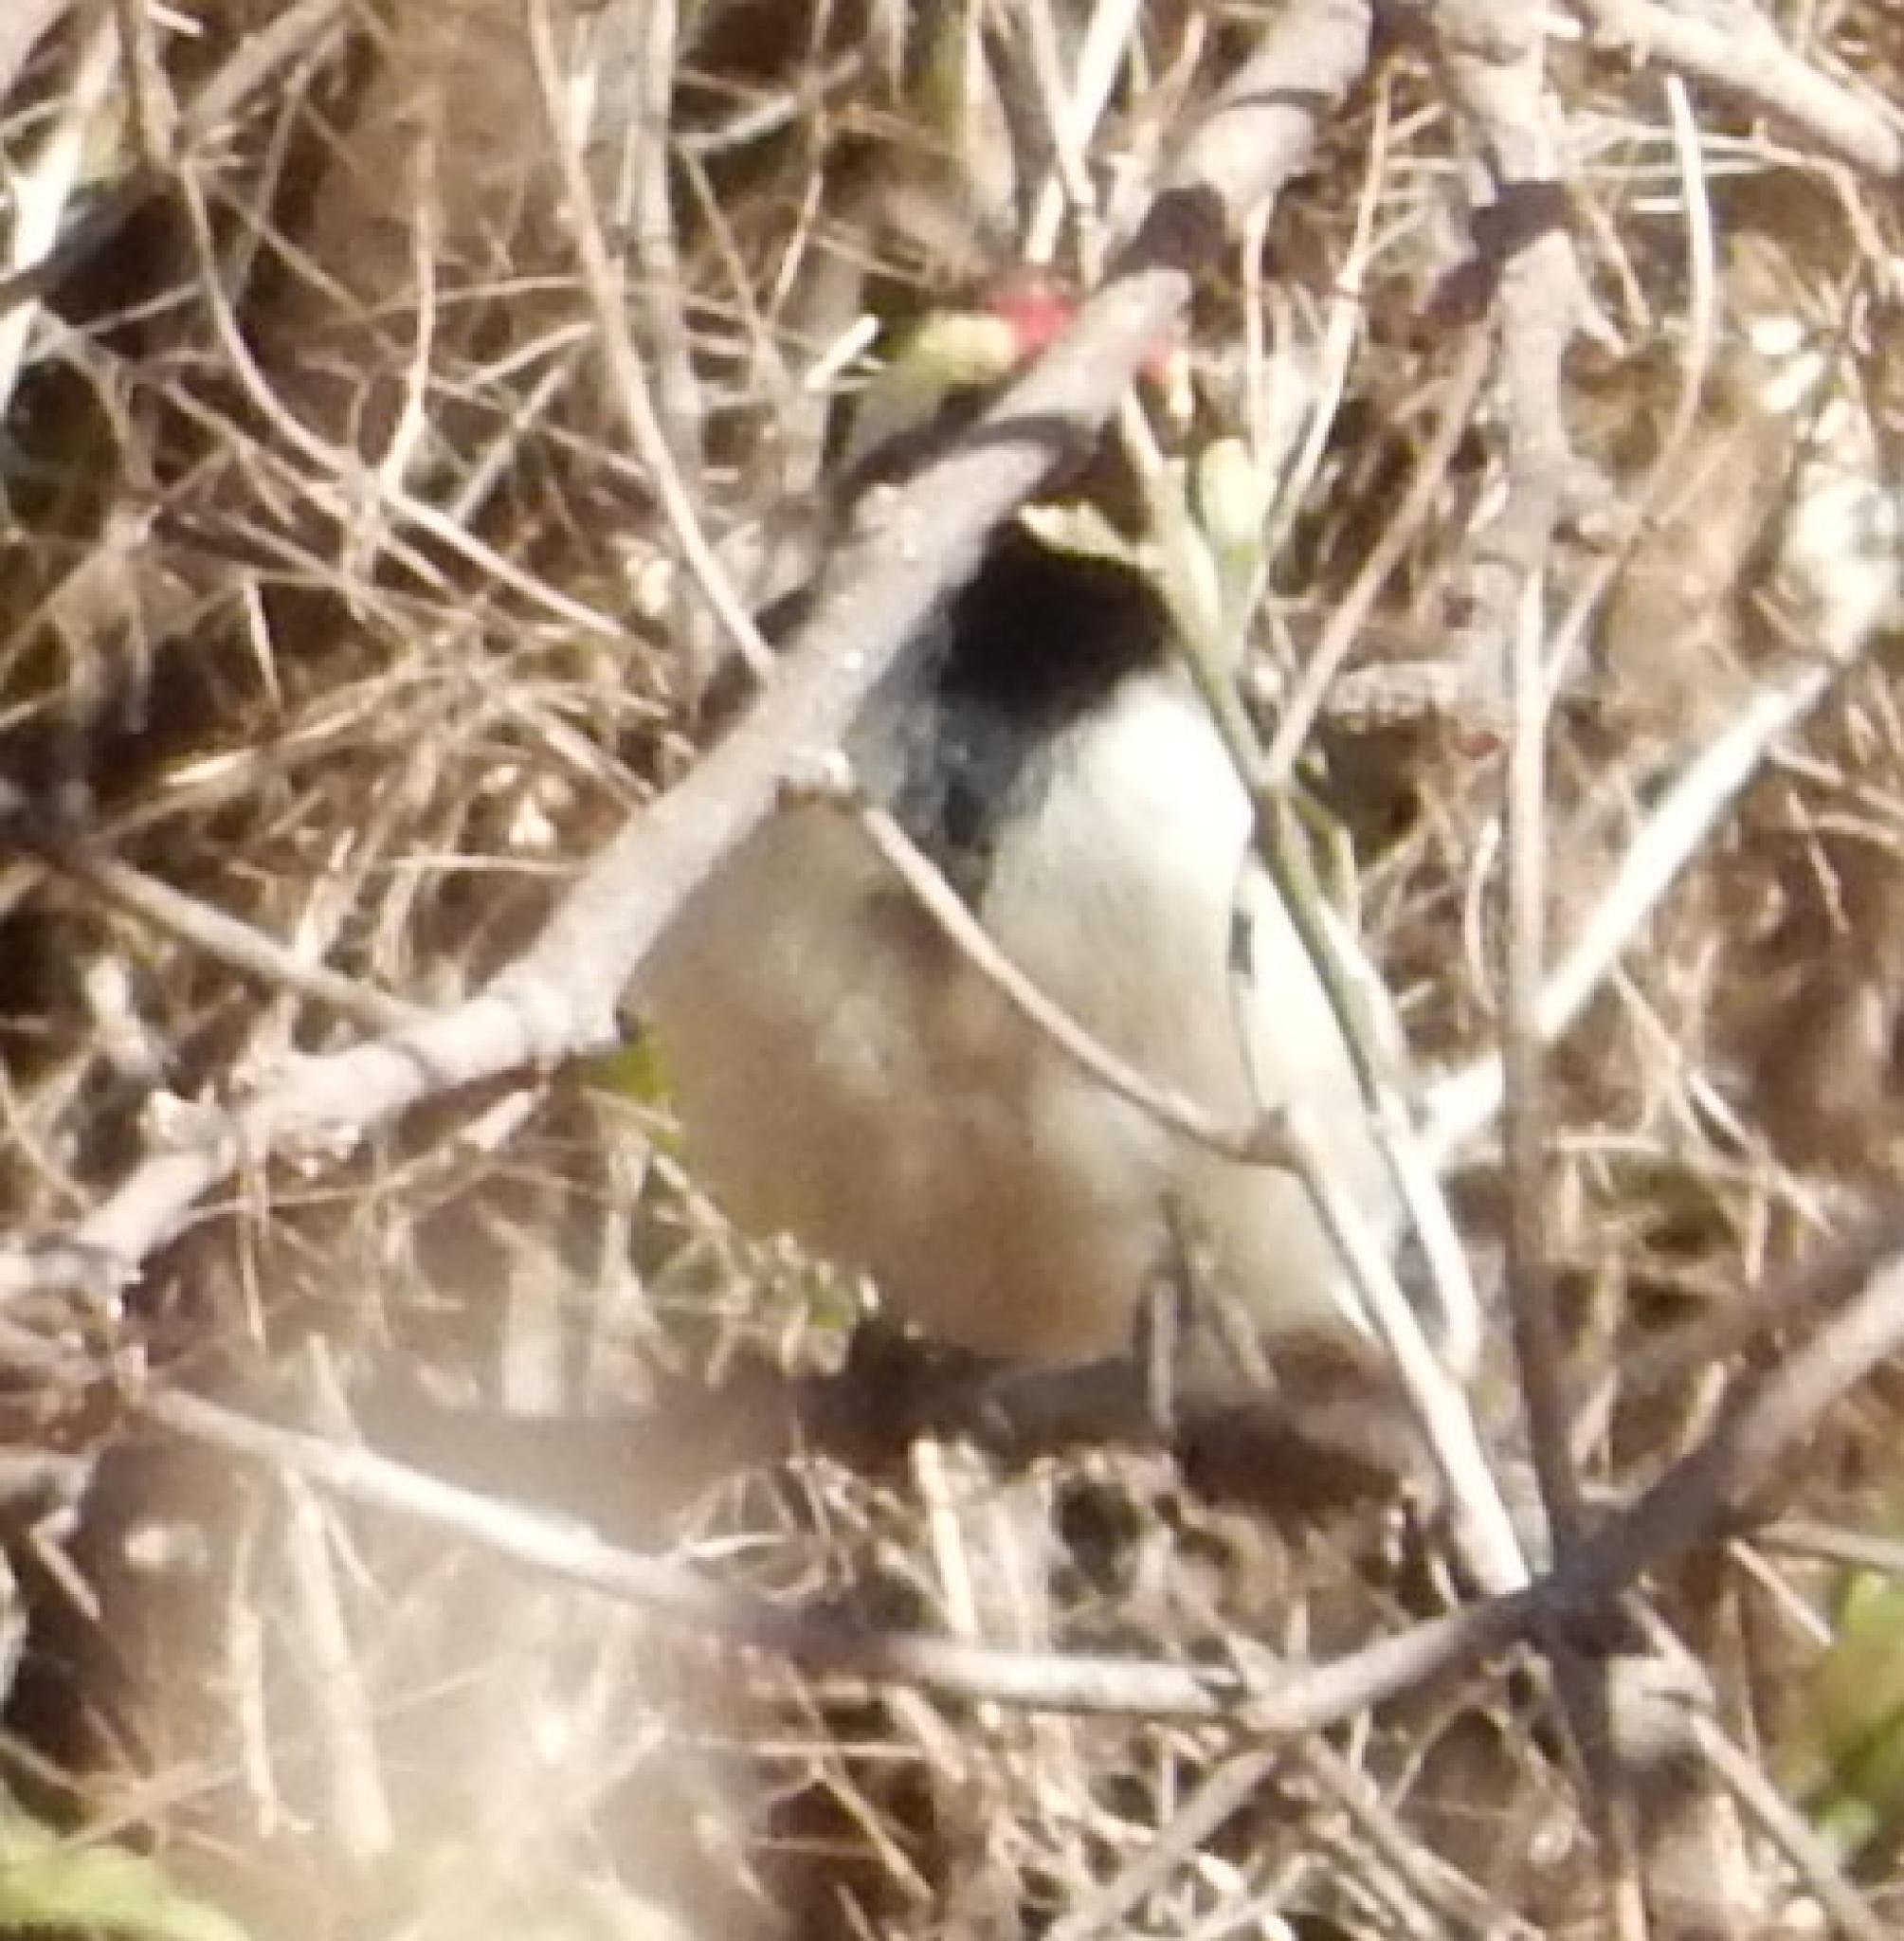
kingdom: Animalia
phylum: Chordata
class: Aves
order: Piciformes
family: Lybiidae
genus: Tricholaema
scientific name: Tricholaema leucomelas
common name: Acacia pied barbet
